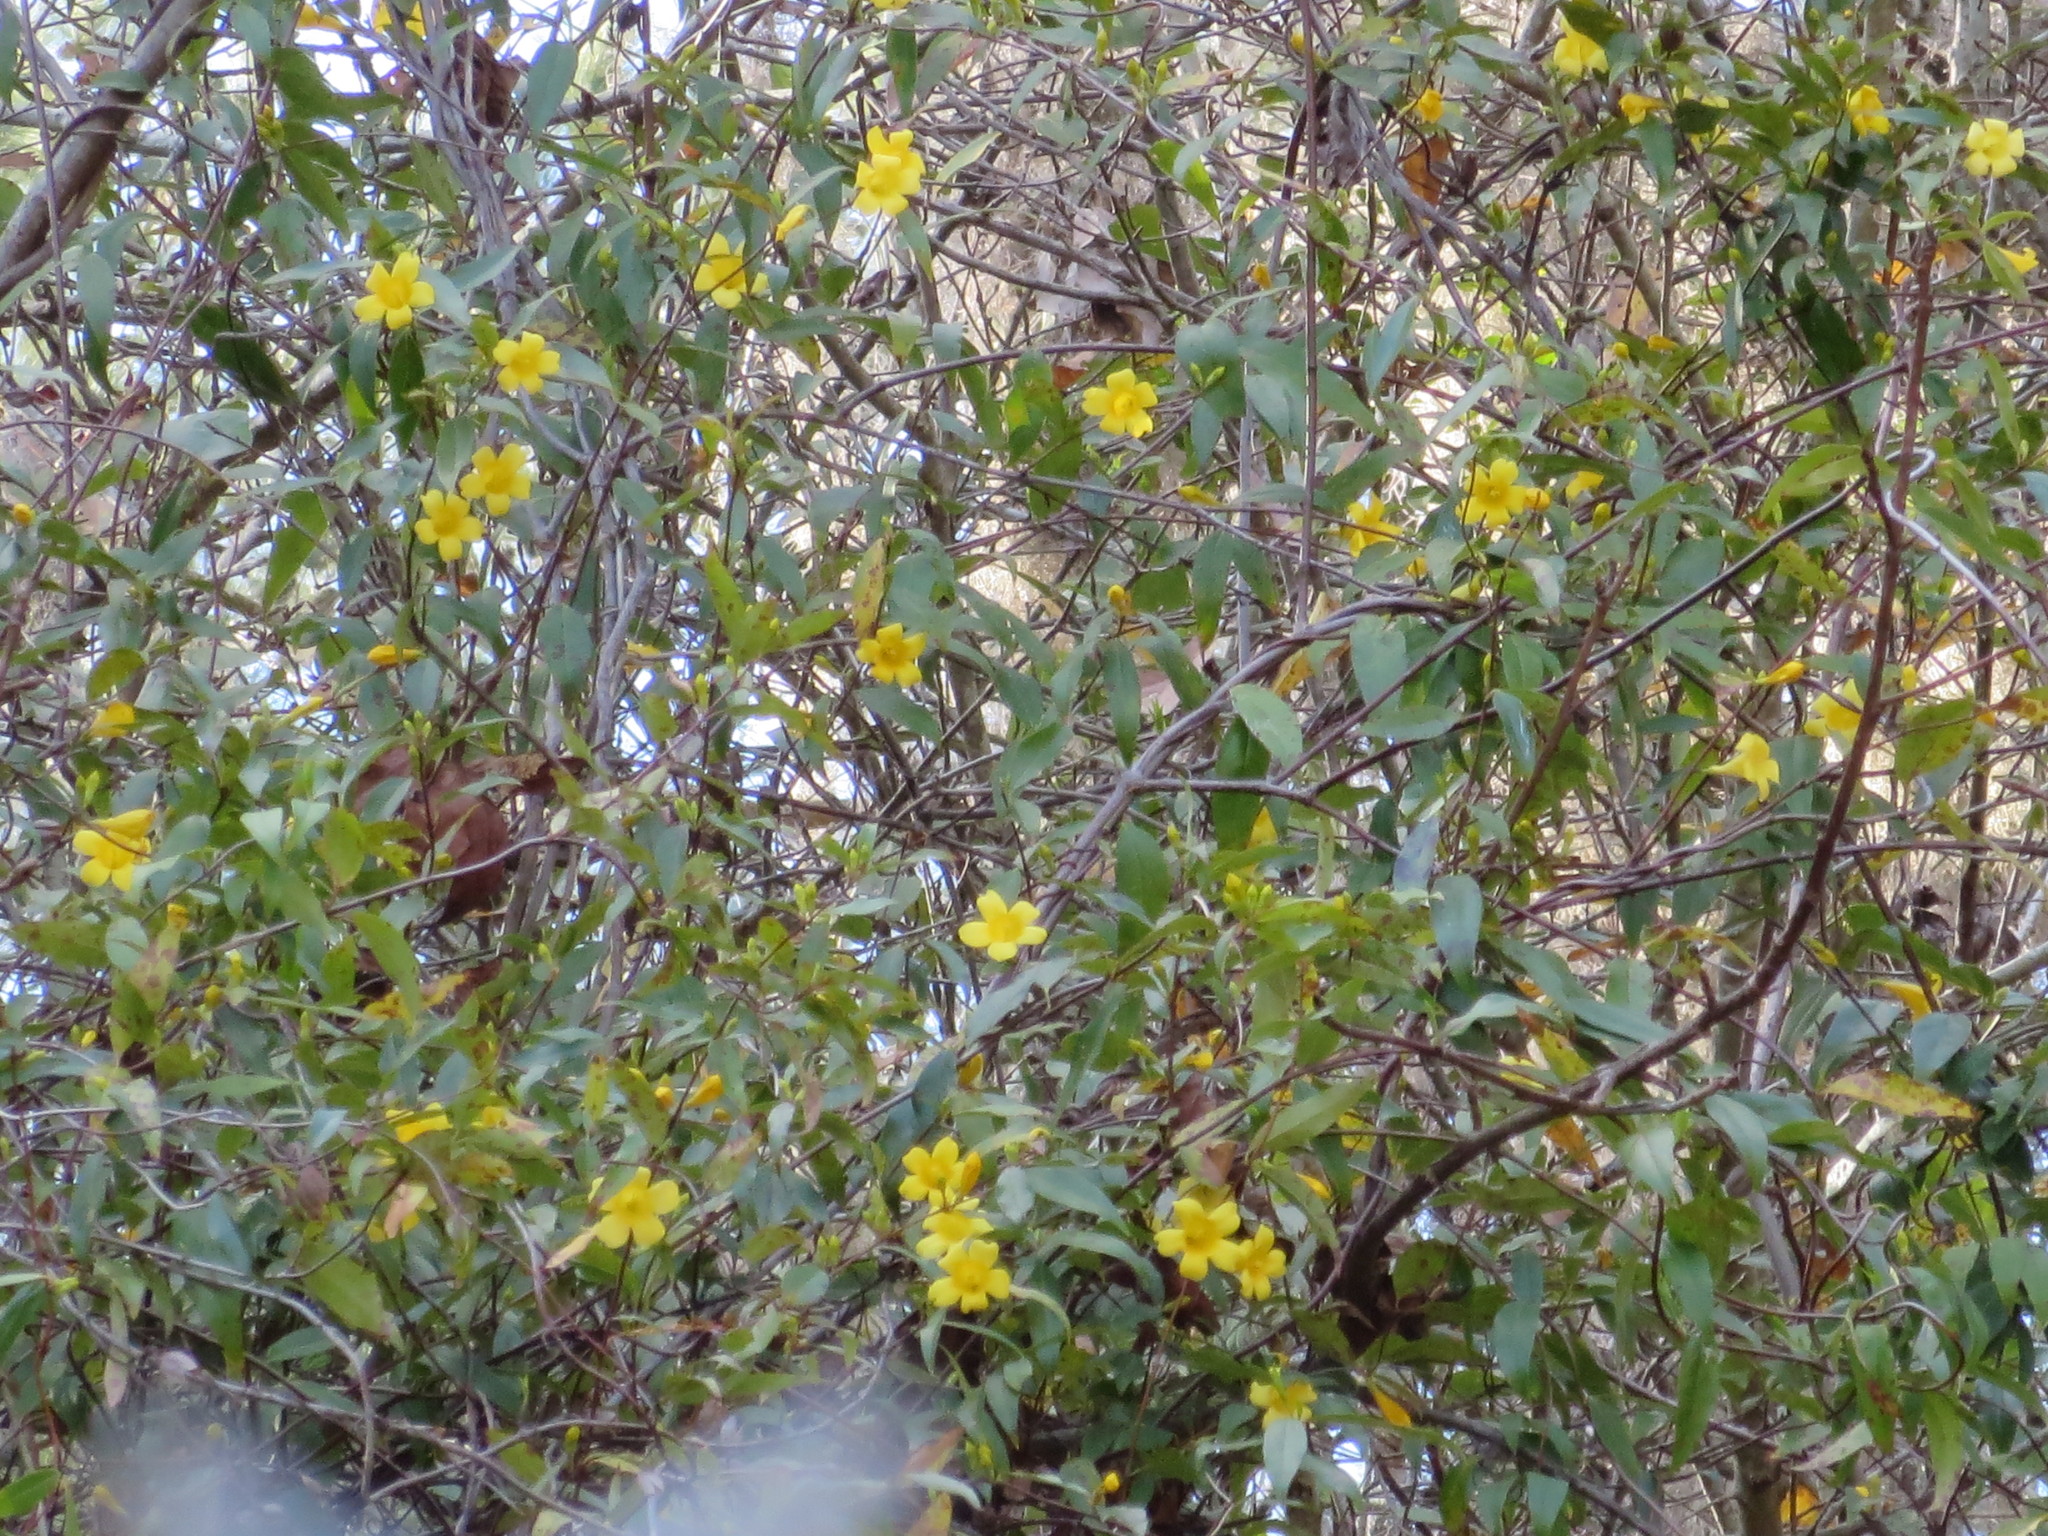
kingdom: Plantae
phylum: Tracheophyta
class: Magnoliopsida
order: Gentianales
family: Gelsemiaceae
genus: Gelsemium
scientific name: Gelsemium sempervirens
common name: Carolina-jasmine
